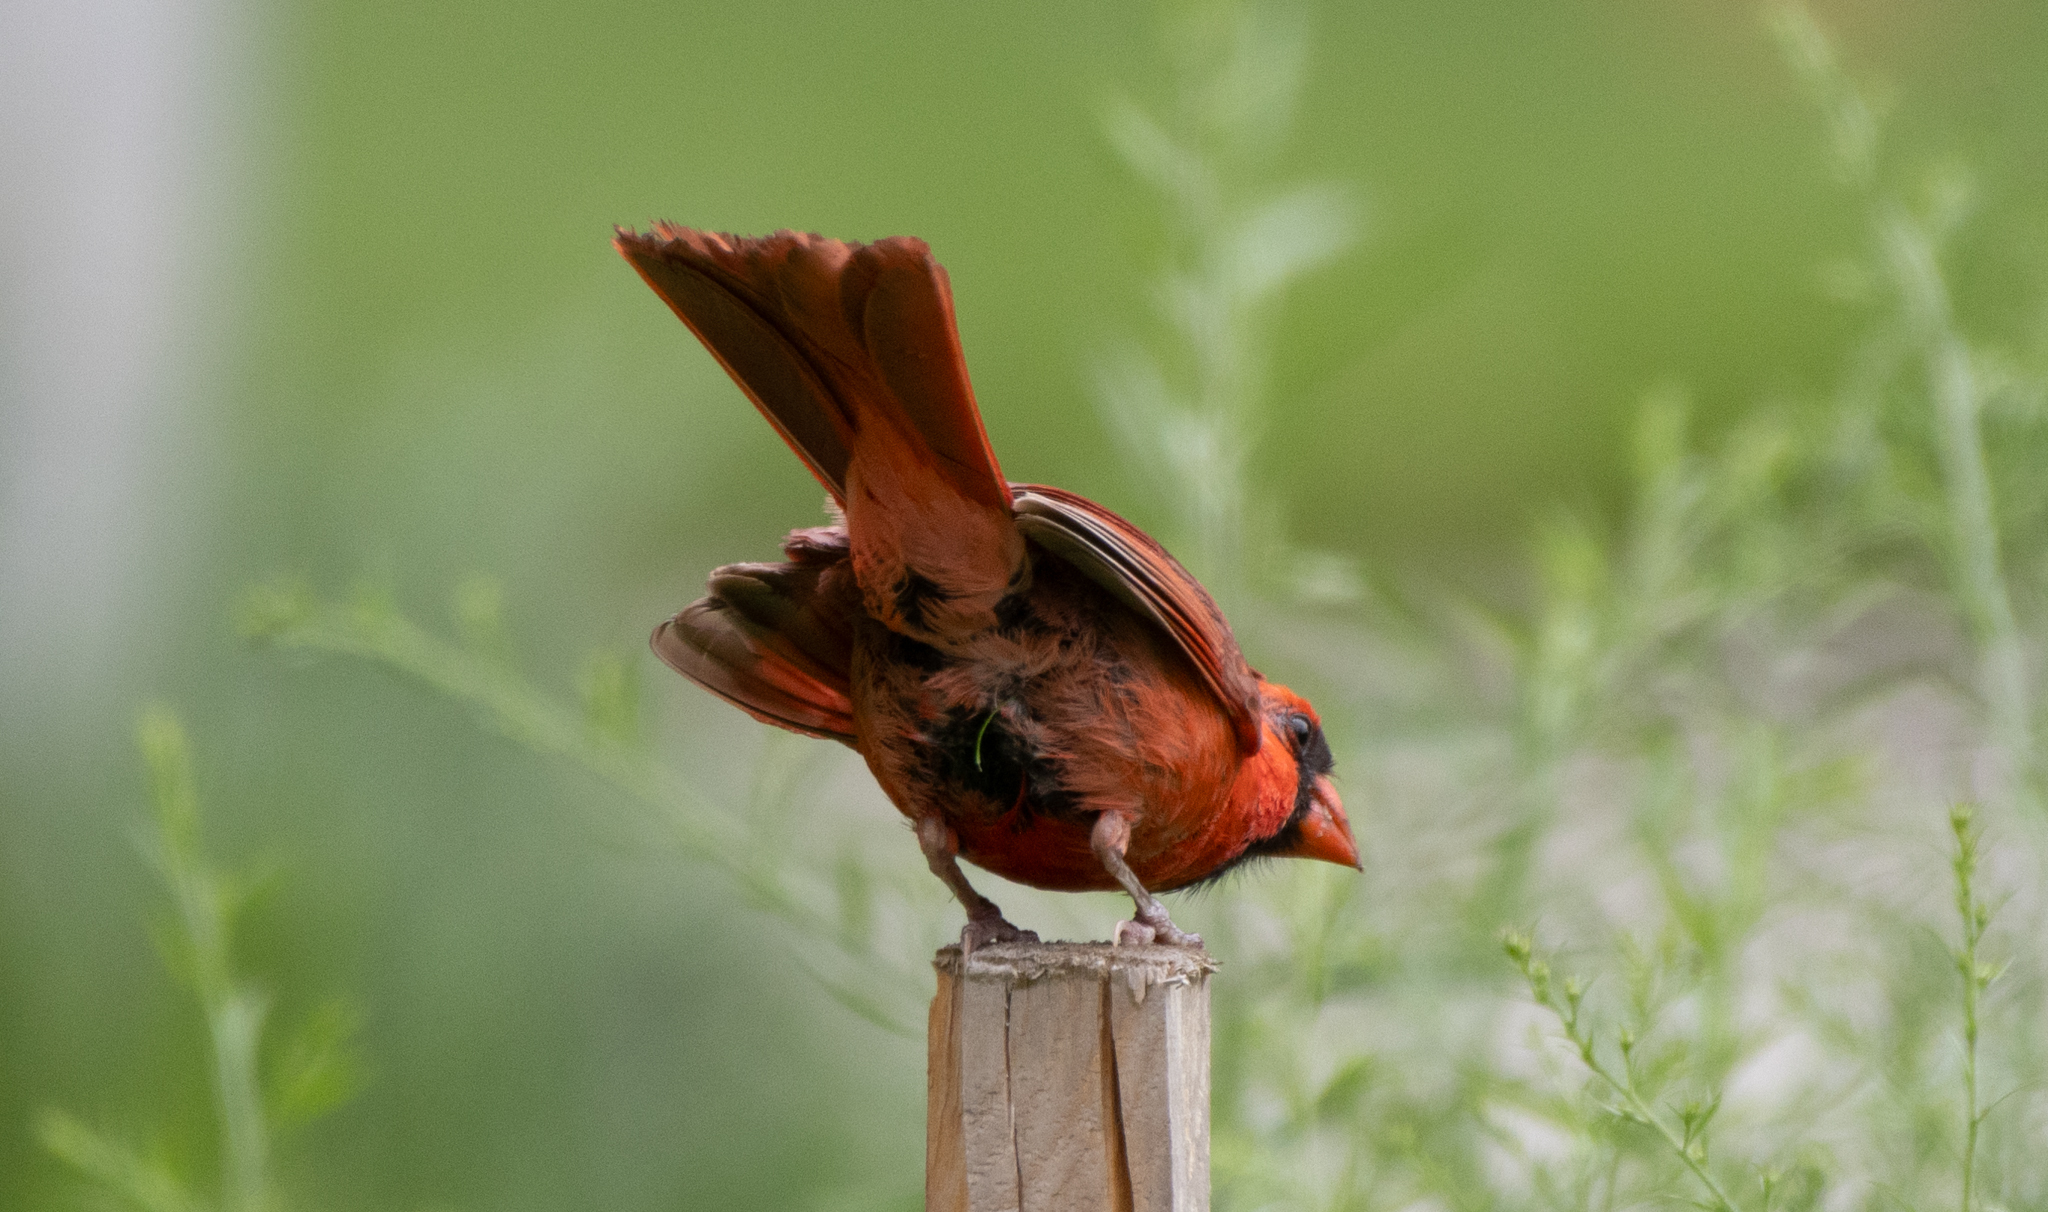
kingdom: Animalia
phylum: Chordata
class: Aves
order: Passeriformes
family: Cardinalidae
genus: Cardinalis
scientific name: Cardinalis cardinalis
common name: Northern cardinal
